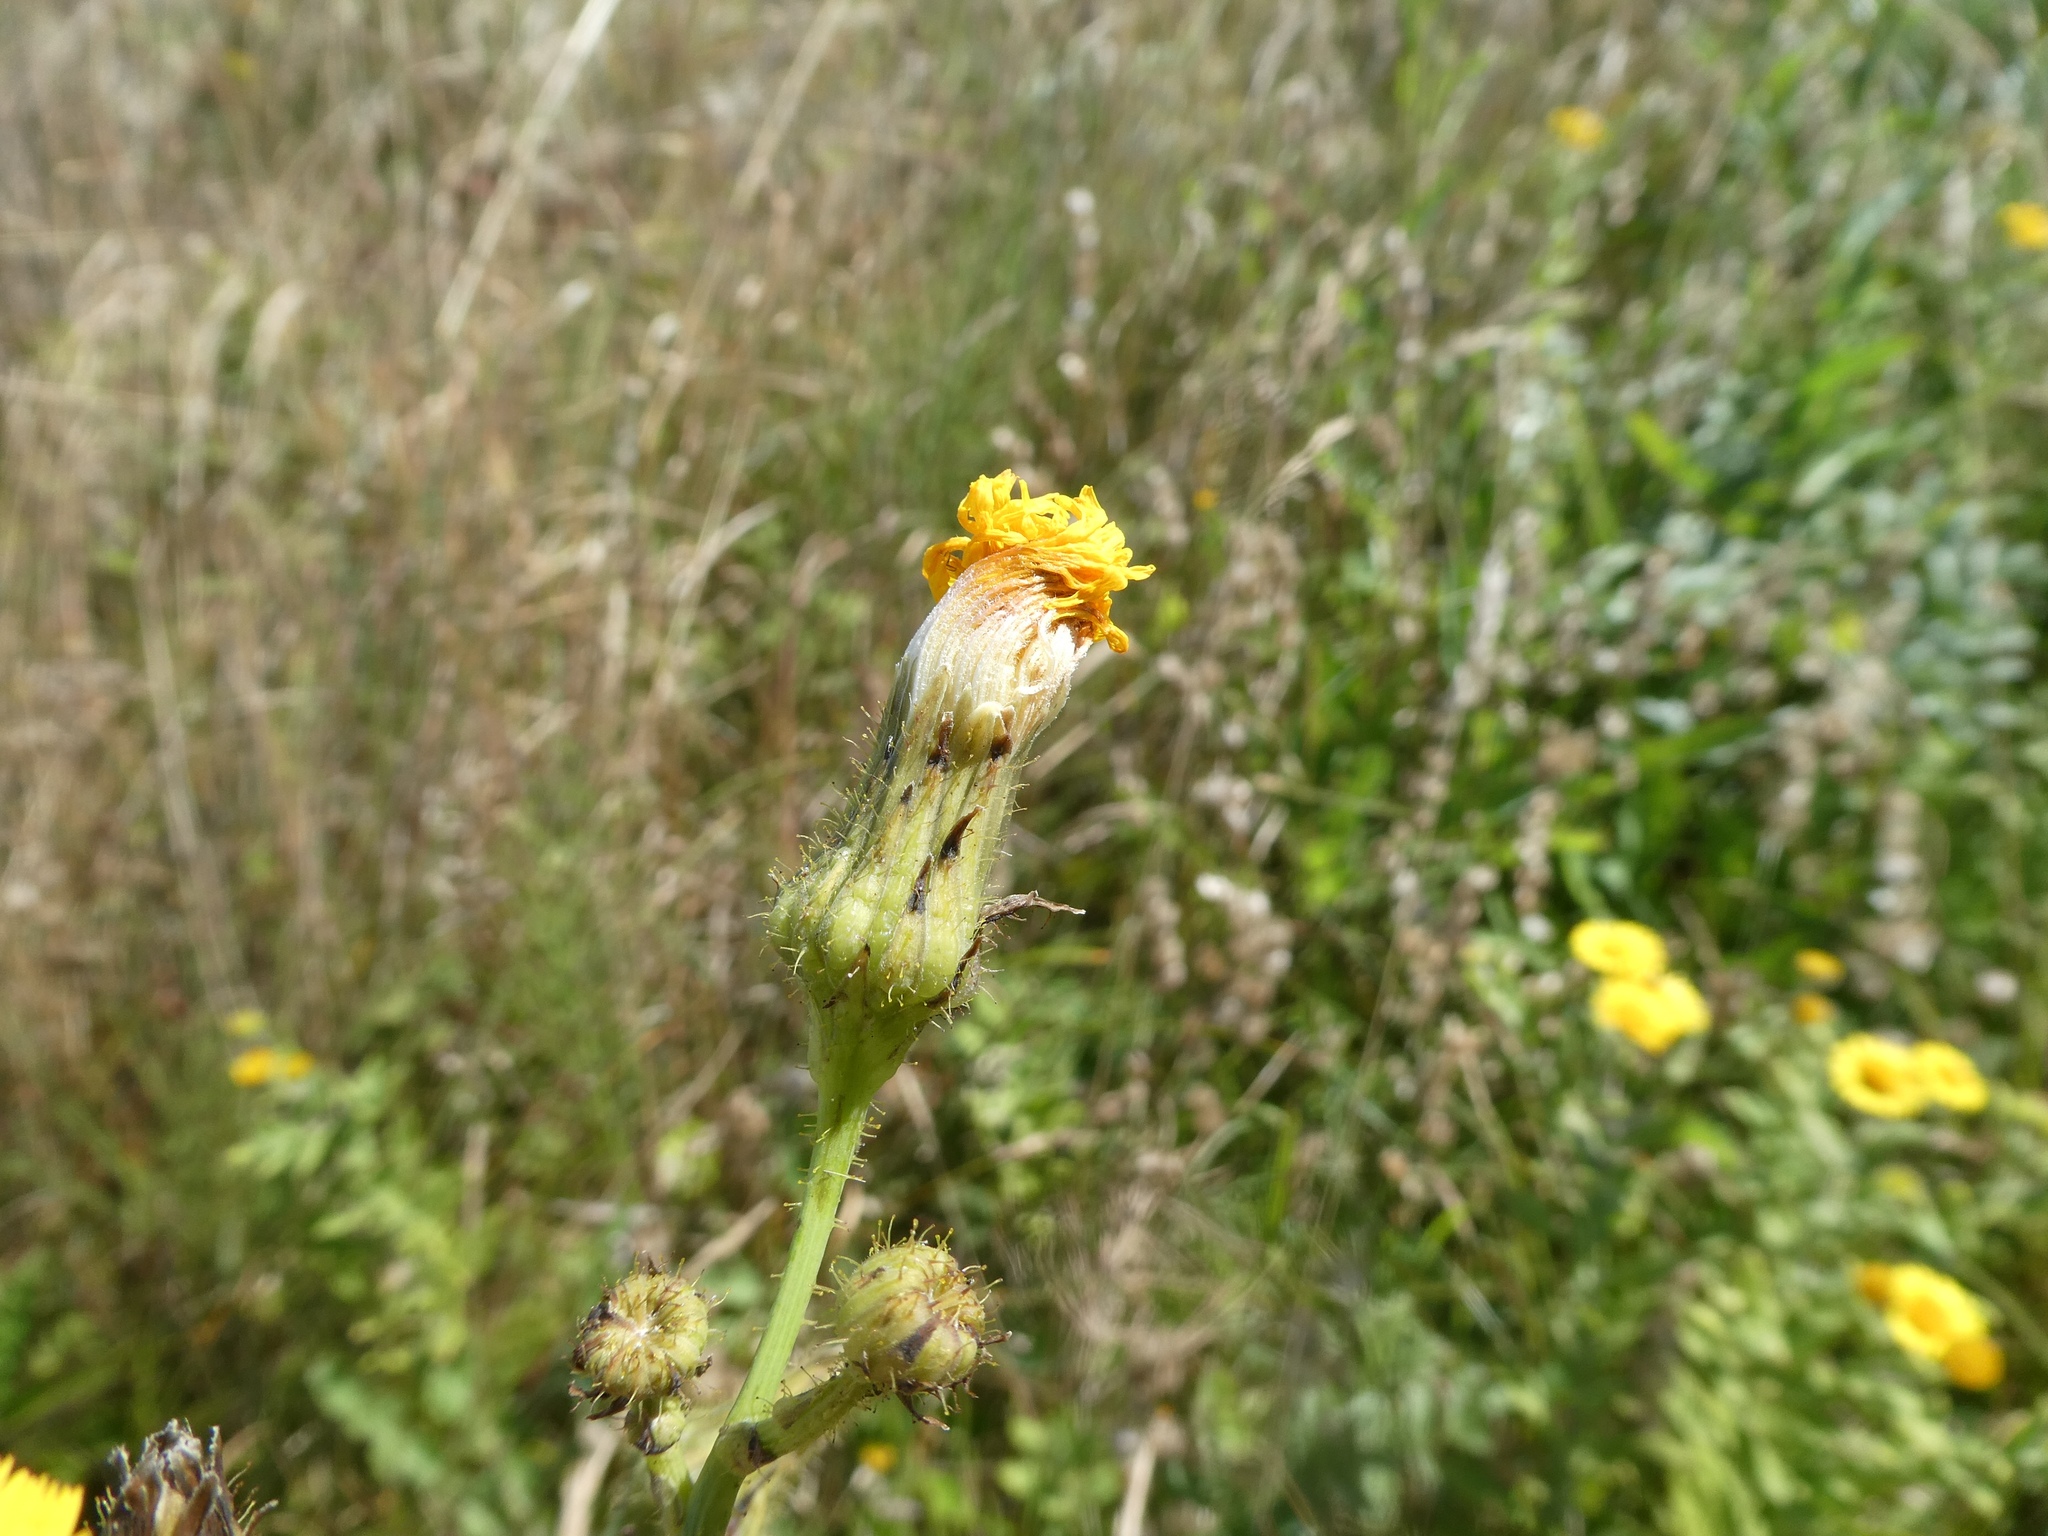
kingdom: Plantae
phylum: Tracheophyta
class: Magnoliopsida
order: Asterales
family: Asteraceae
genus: Sonchus
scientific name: Sonchus arvensis
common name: Perennial sow-thistle
